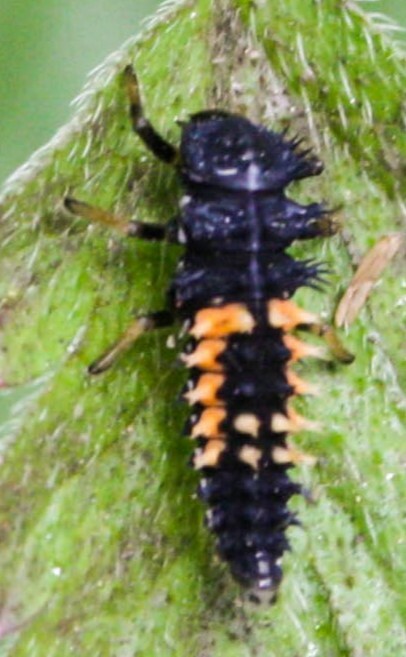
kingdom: Animalia
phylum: Arthropoda
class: Insecta
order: Coleoptera
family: Coccinellidae
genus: Harmonia
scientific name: Harmonia axyridis
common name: Harlequin ladybird
